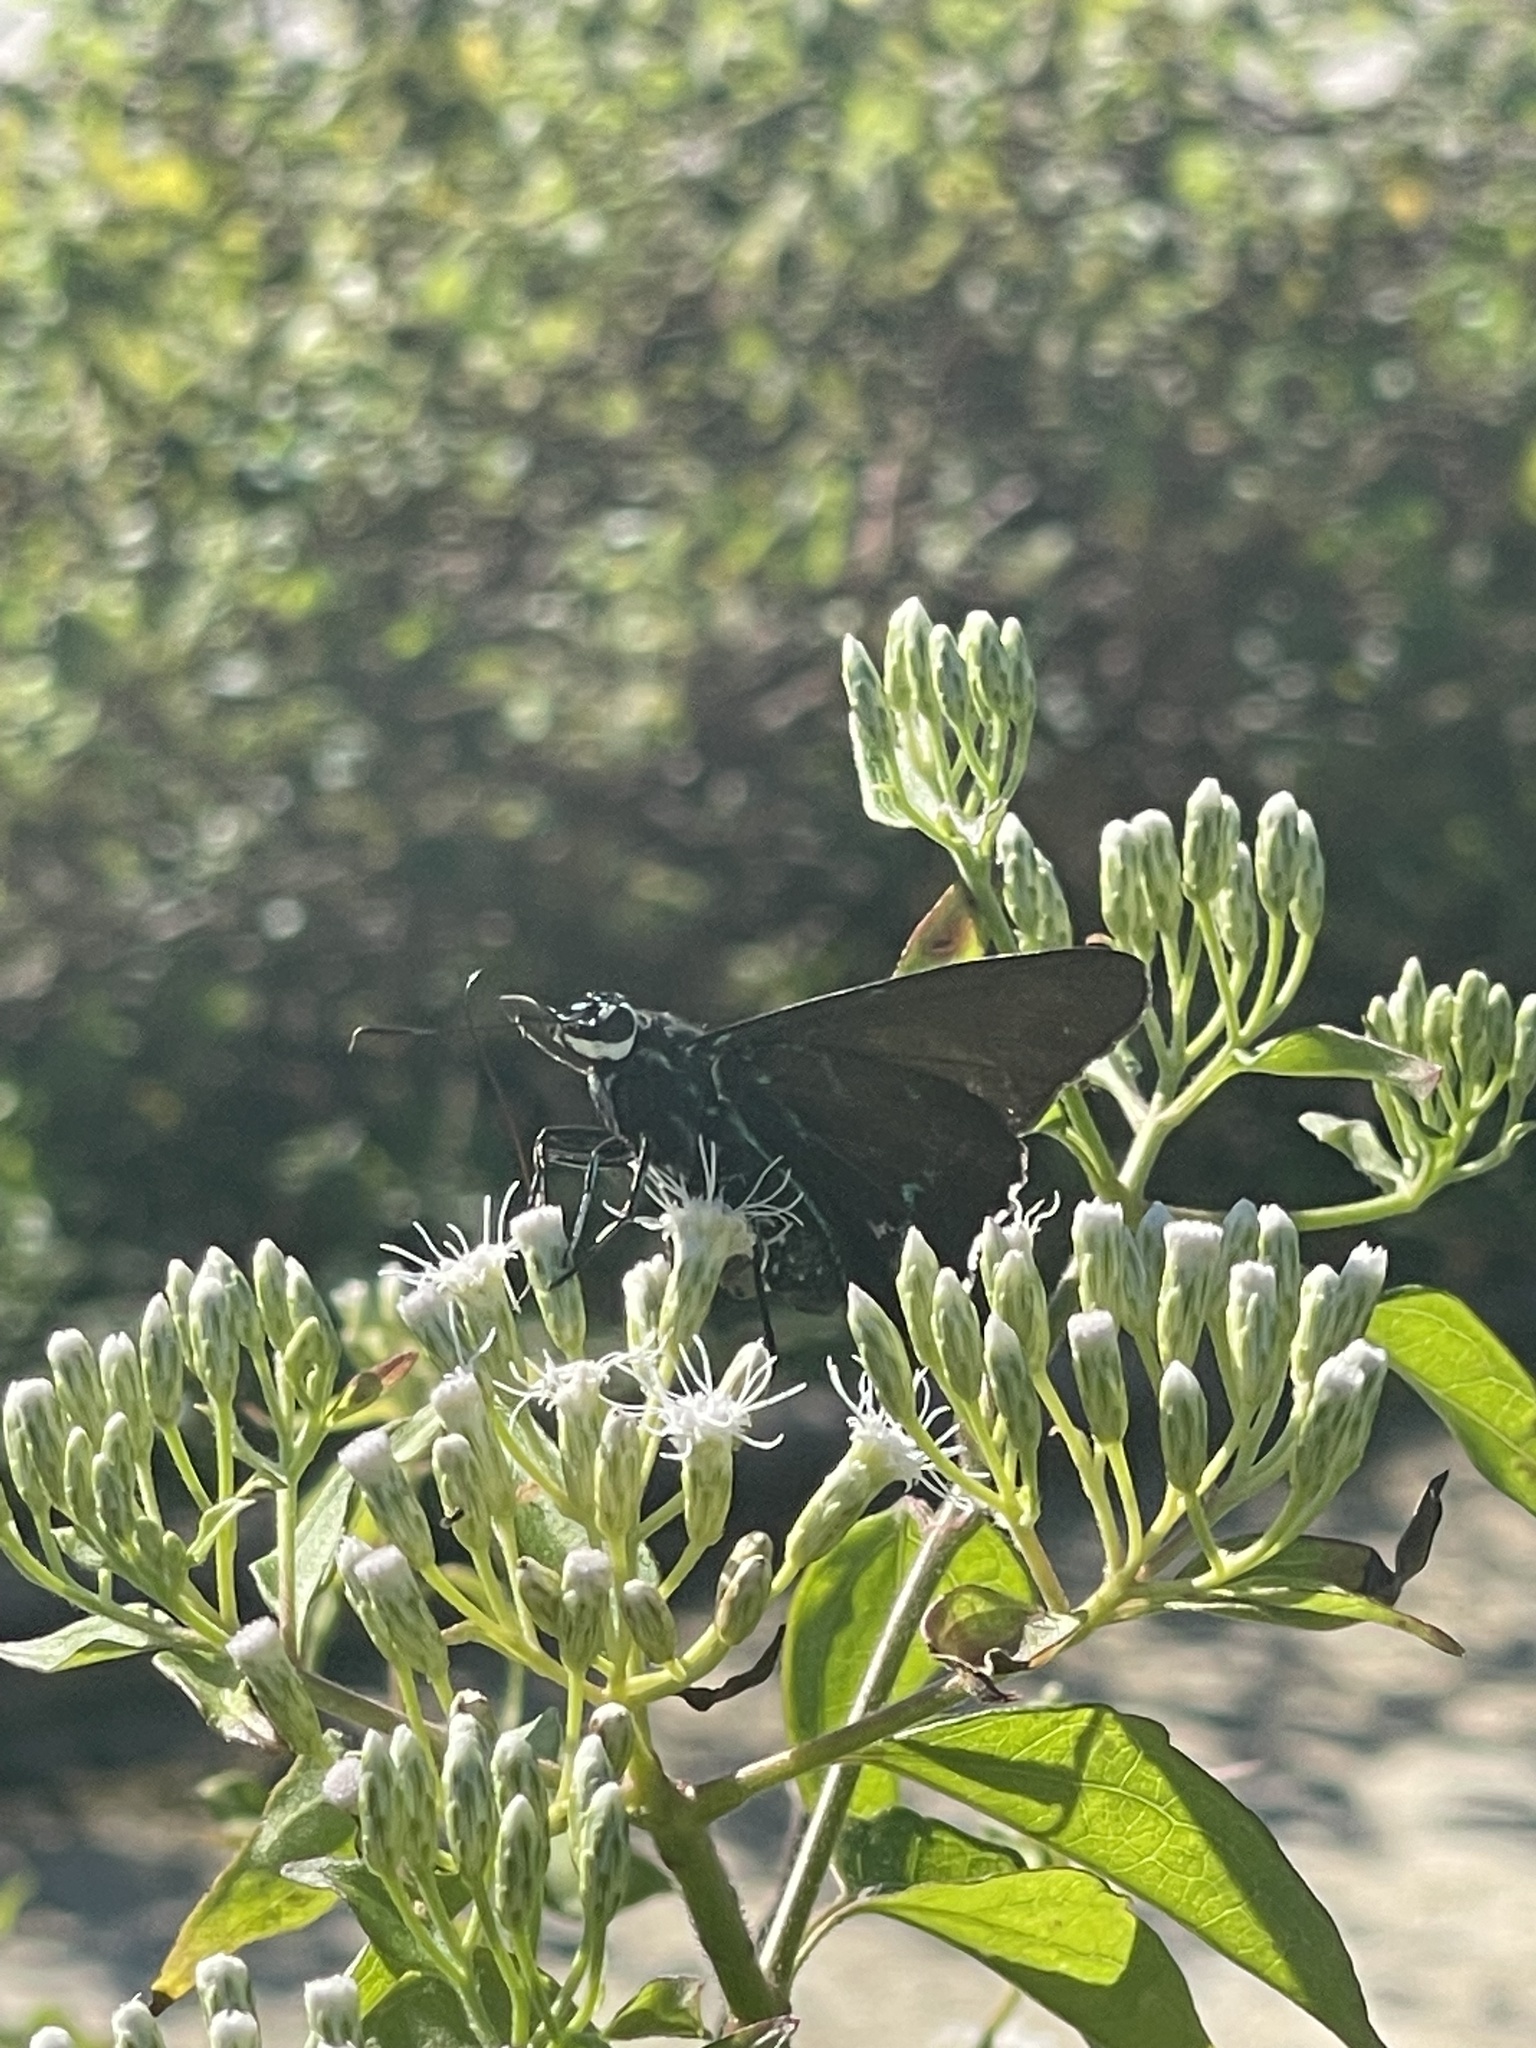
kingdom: Animalia
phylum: Arthropoda
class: Insecta
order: Lepidoptera
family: Hesperiidae
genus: Phocides
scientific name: Phocides pigmalion
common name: Mangrove skipper
